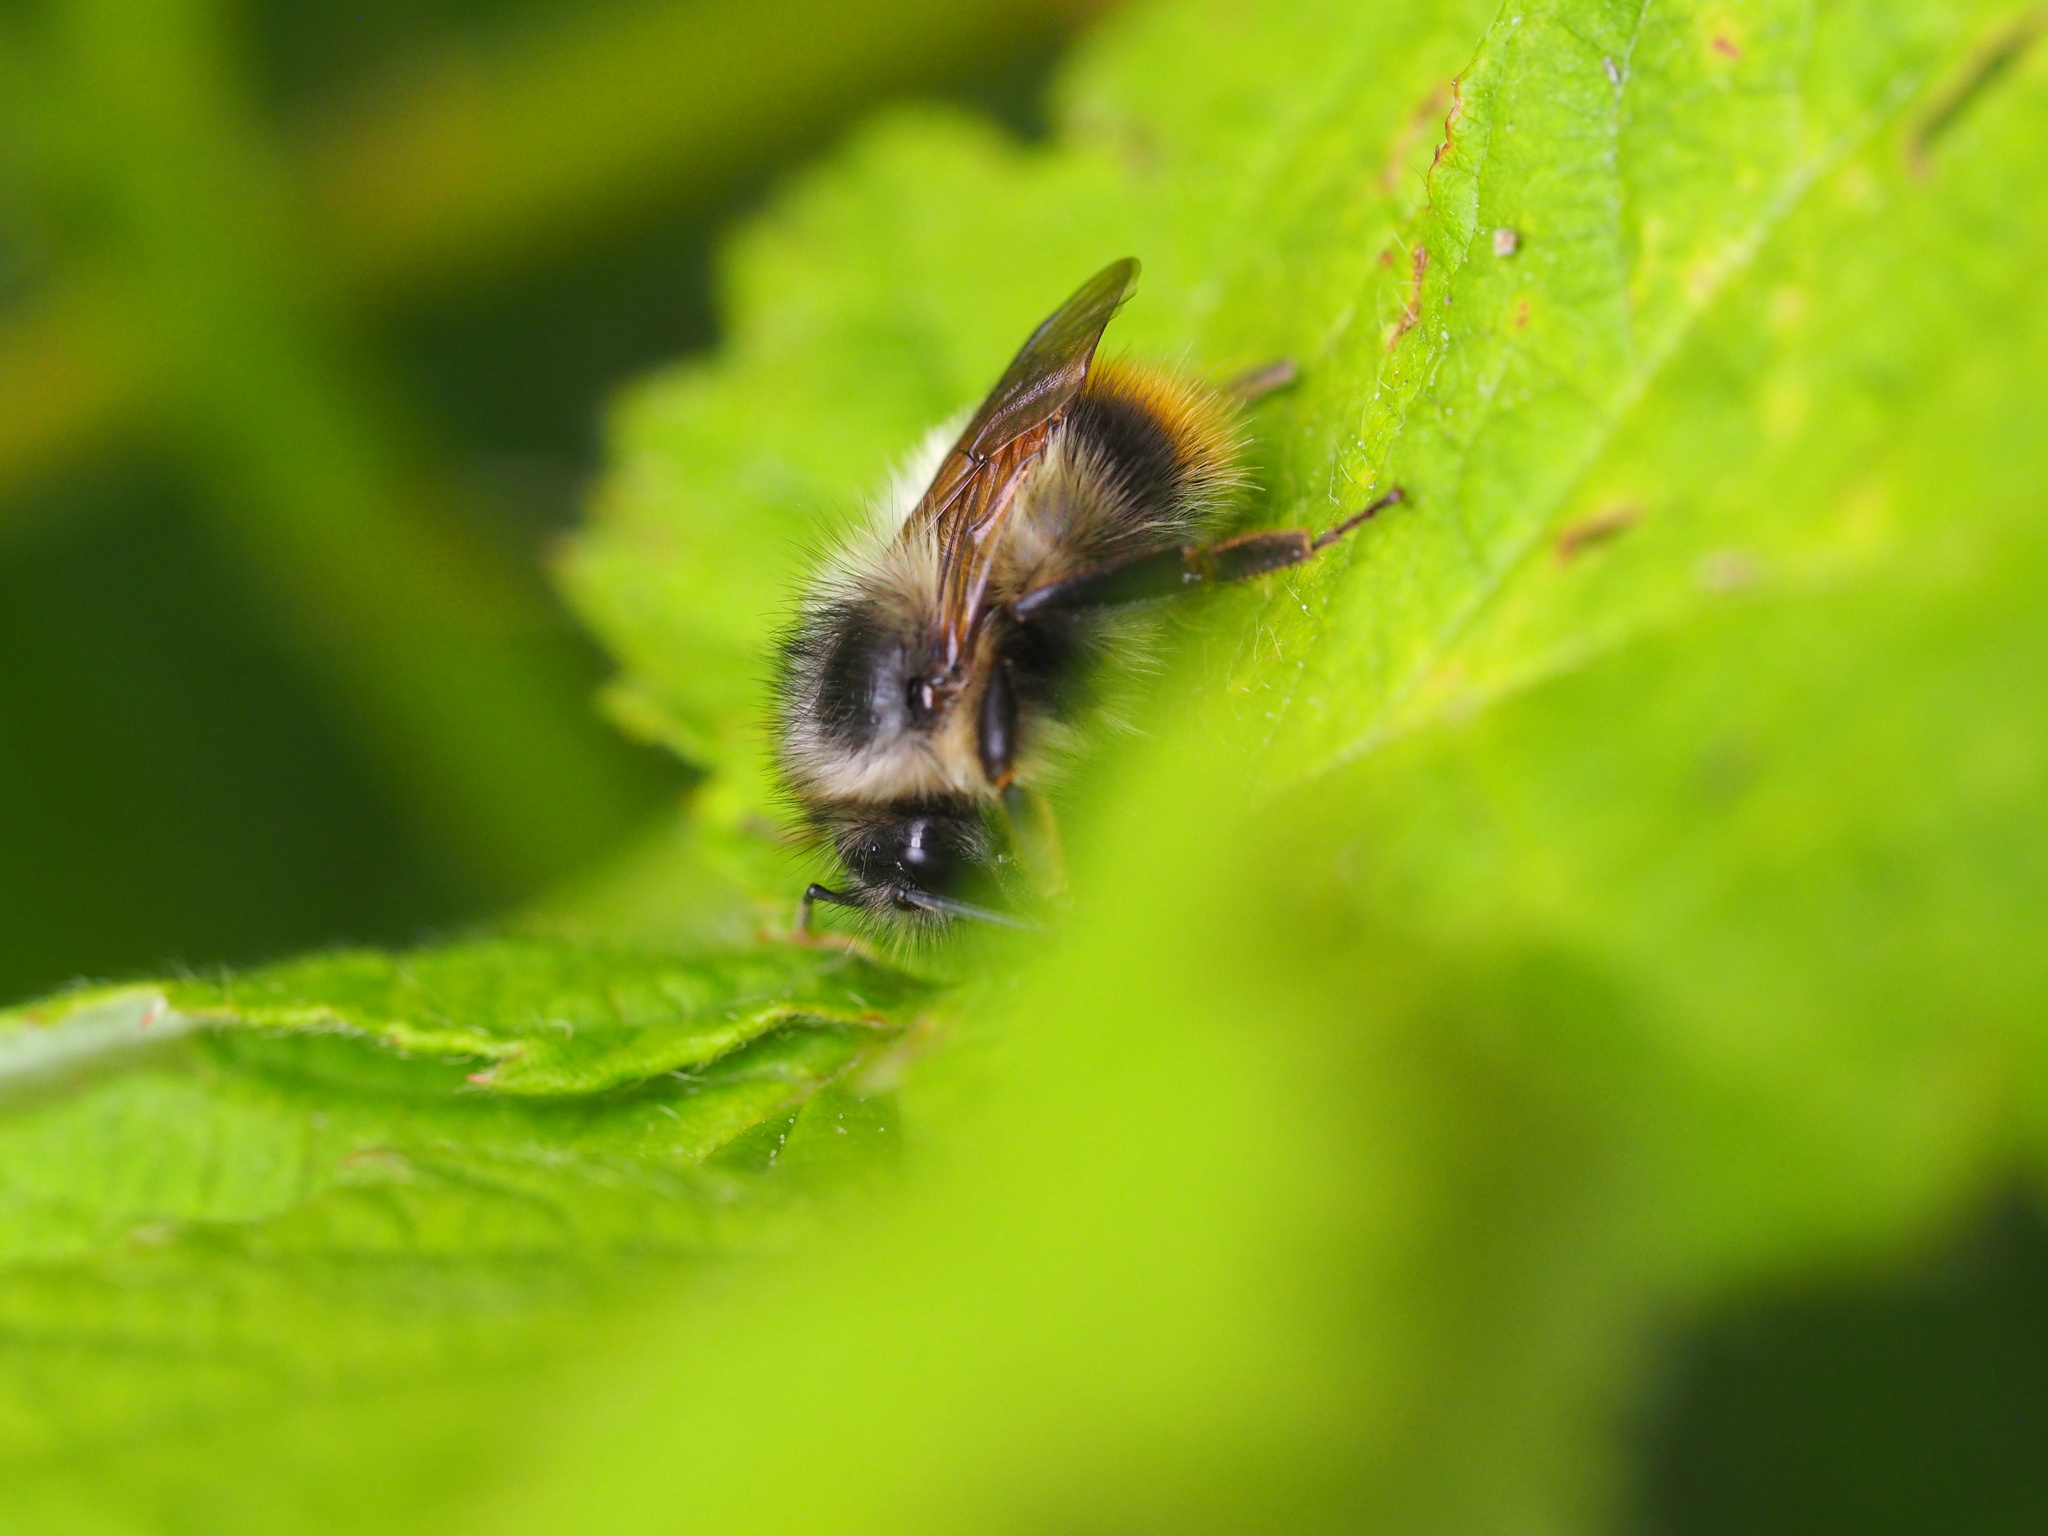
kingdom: Animalia
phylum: Arthropoda
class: Insecta
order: Hymenoptera
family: Apidae
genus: Bombus
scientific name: Bombus mixtus
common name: Fuzzy-horned bumble bee
